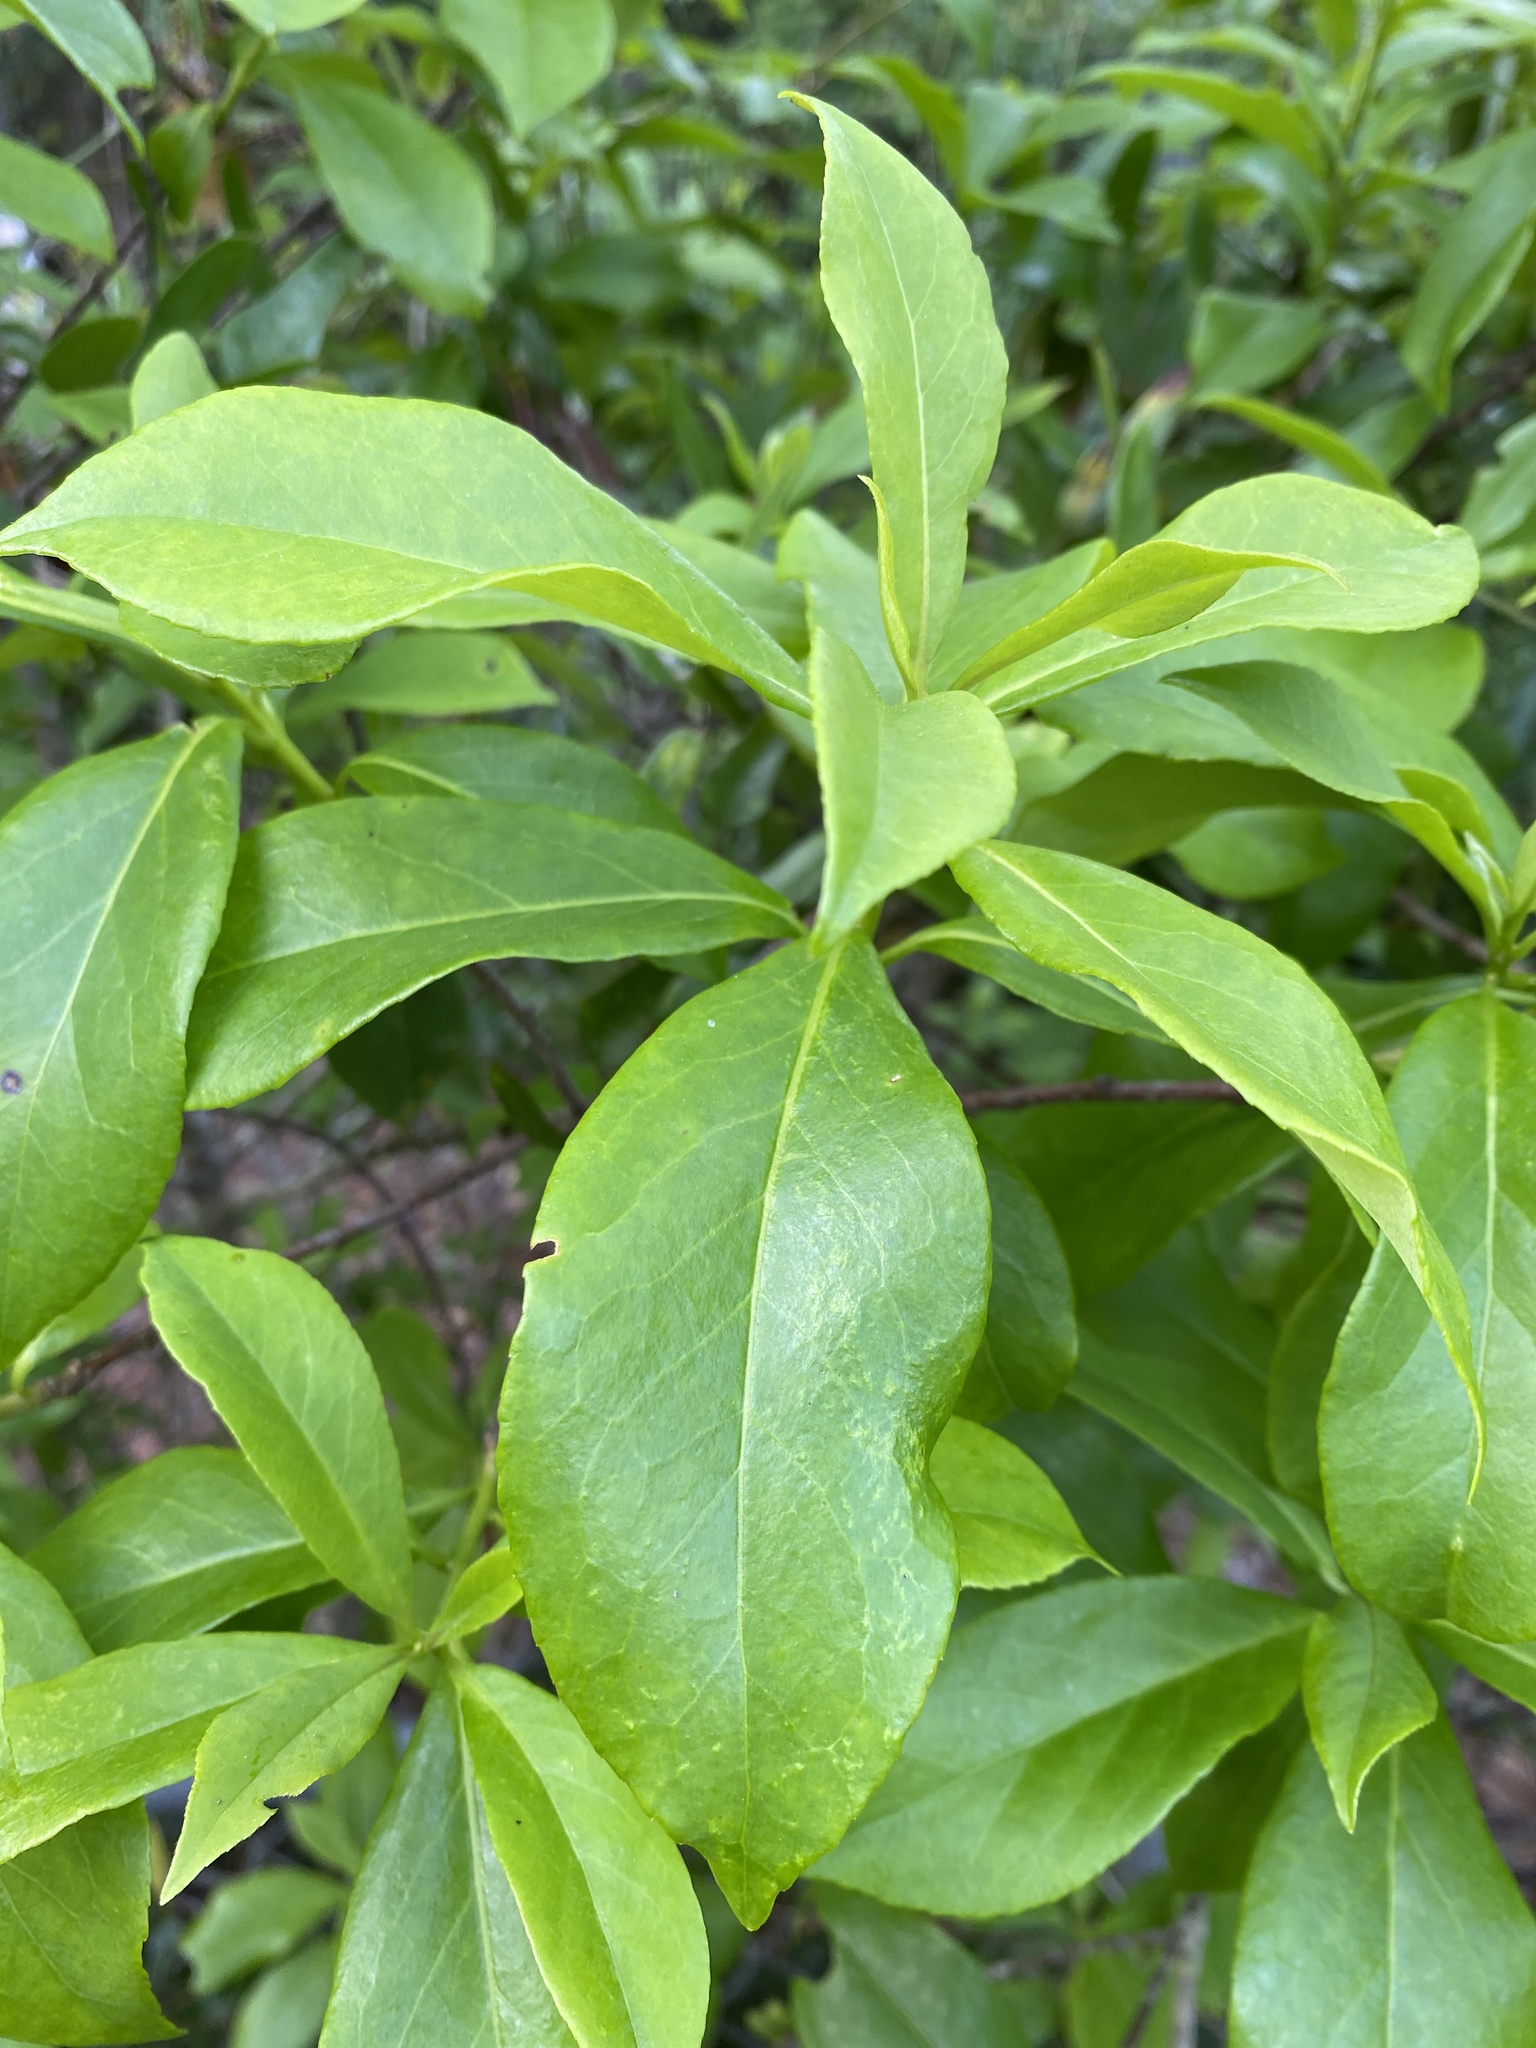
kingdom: Plantae
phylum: Tracheophyta
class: Magnoliopsida
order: Ericales
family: Symplocaceae
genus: Symplocos
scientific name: Symplocos tinctoria
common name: Horse-sugar
